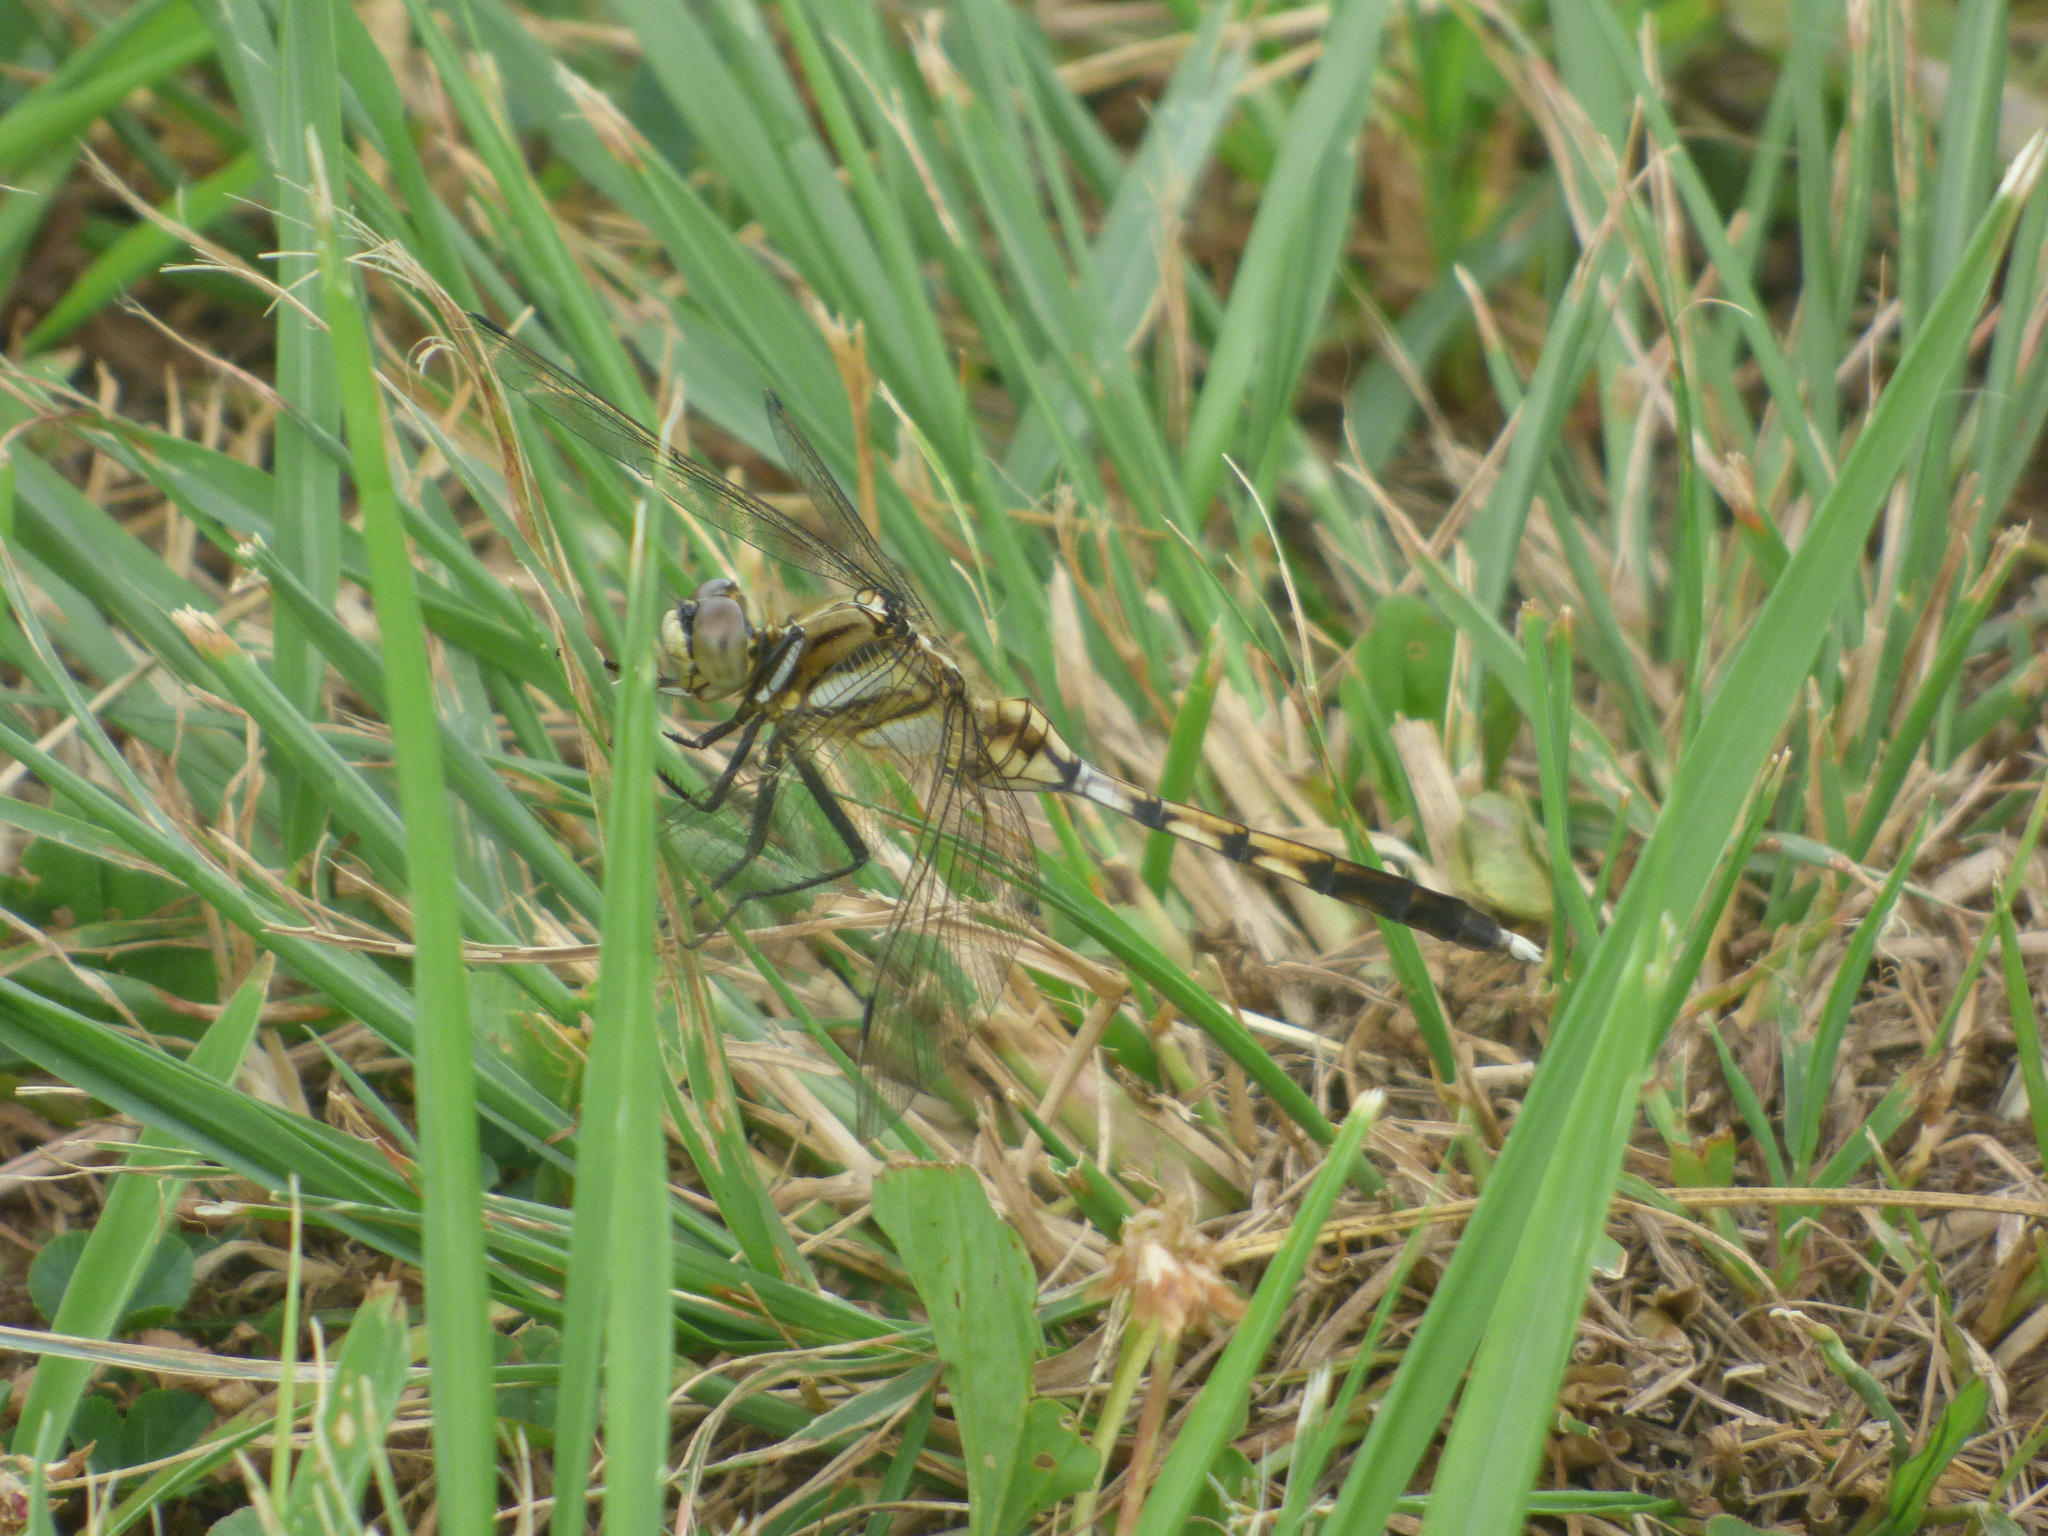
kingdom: Animalia
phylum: Arthropoda
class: Insecta
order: Odonata
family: Libellulidae
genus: Orthetrum
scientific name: Orthetrum albistylum
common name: White-tailed skimmer
